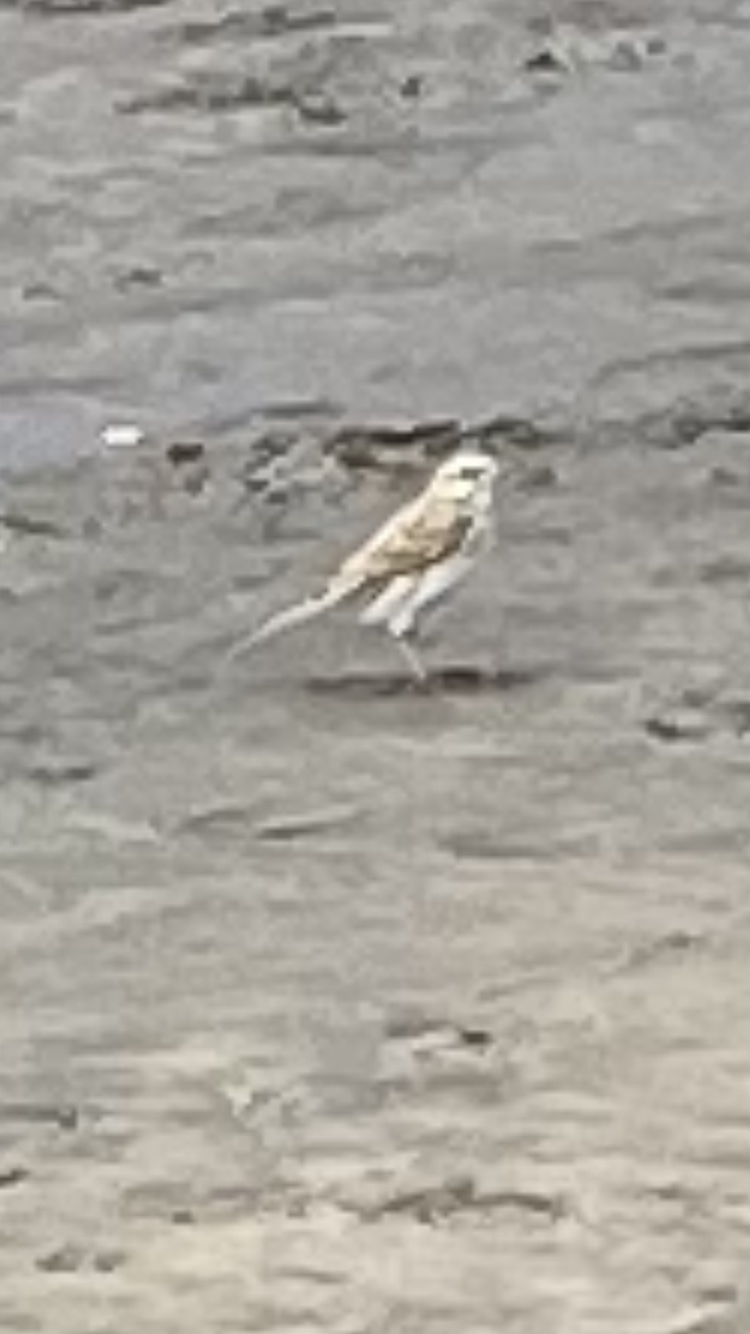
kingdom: Animalia
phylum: Chordata
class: Aves
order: Passeriformes
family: Motacillidae
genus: Anthus
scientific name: Anthus novaeseelandiae
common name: New zealand pipit
